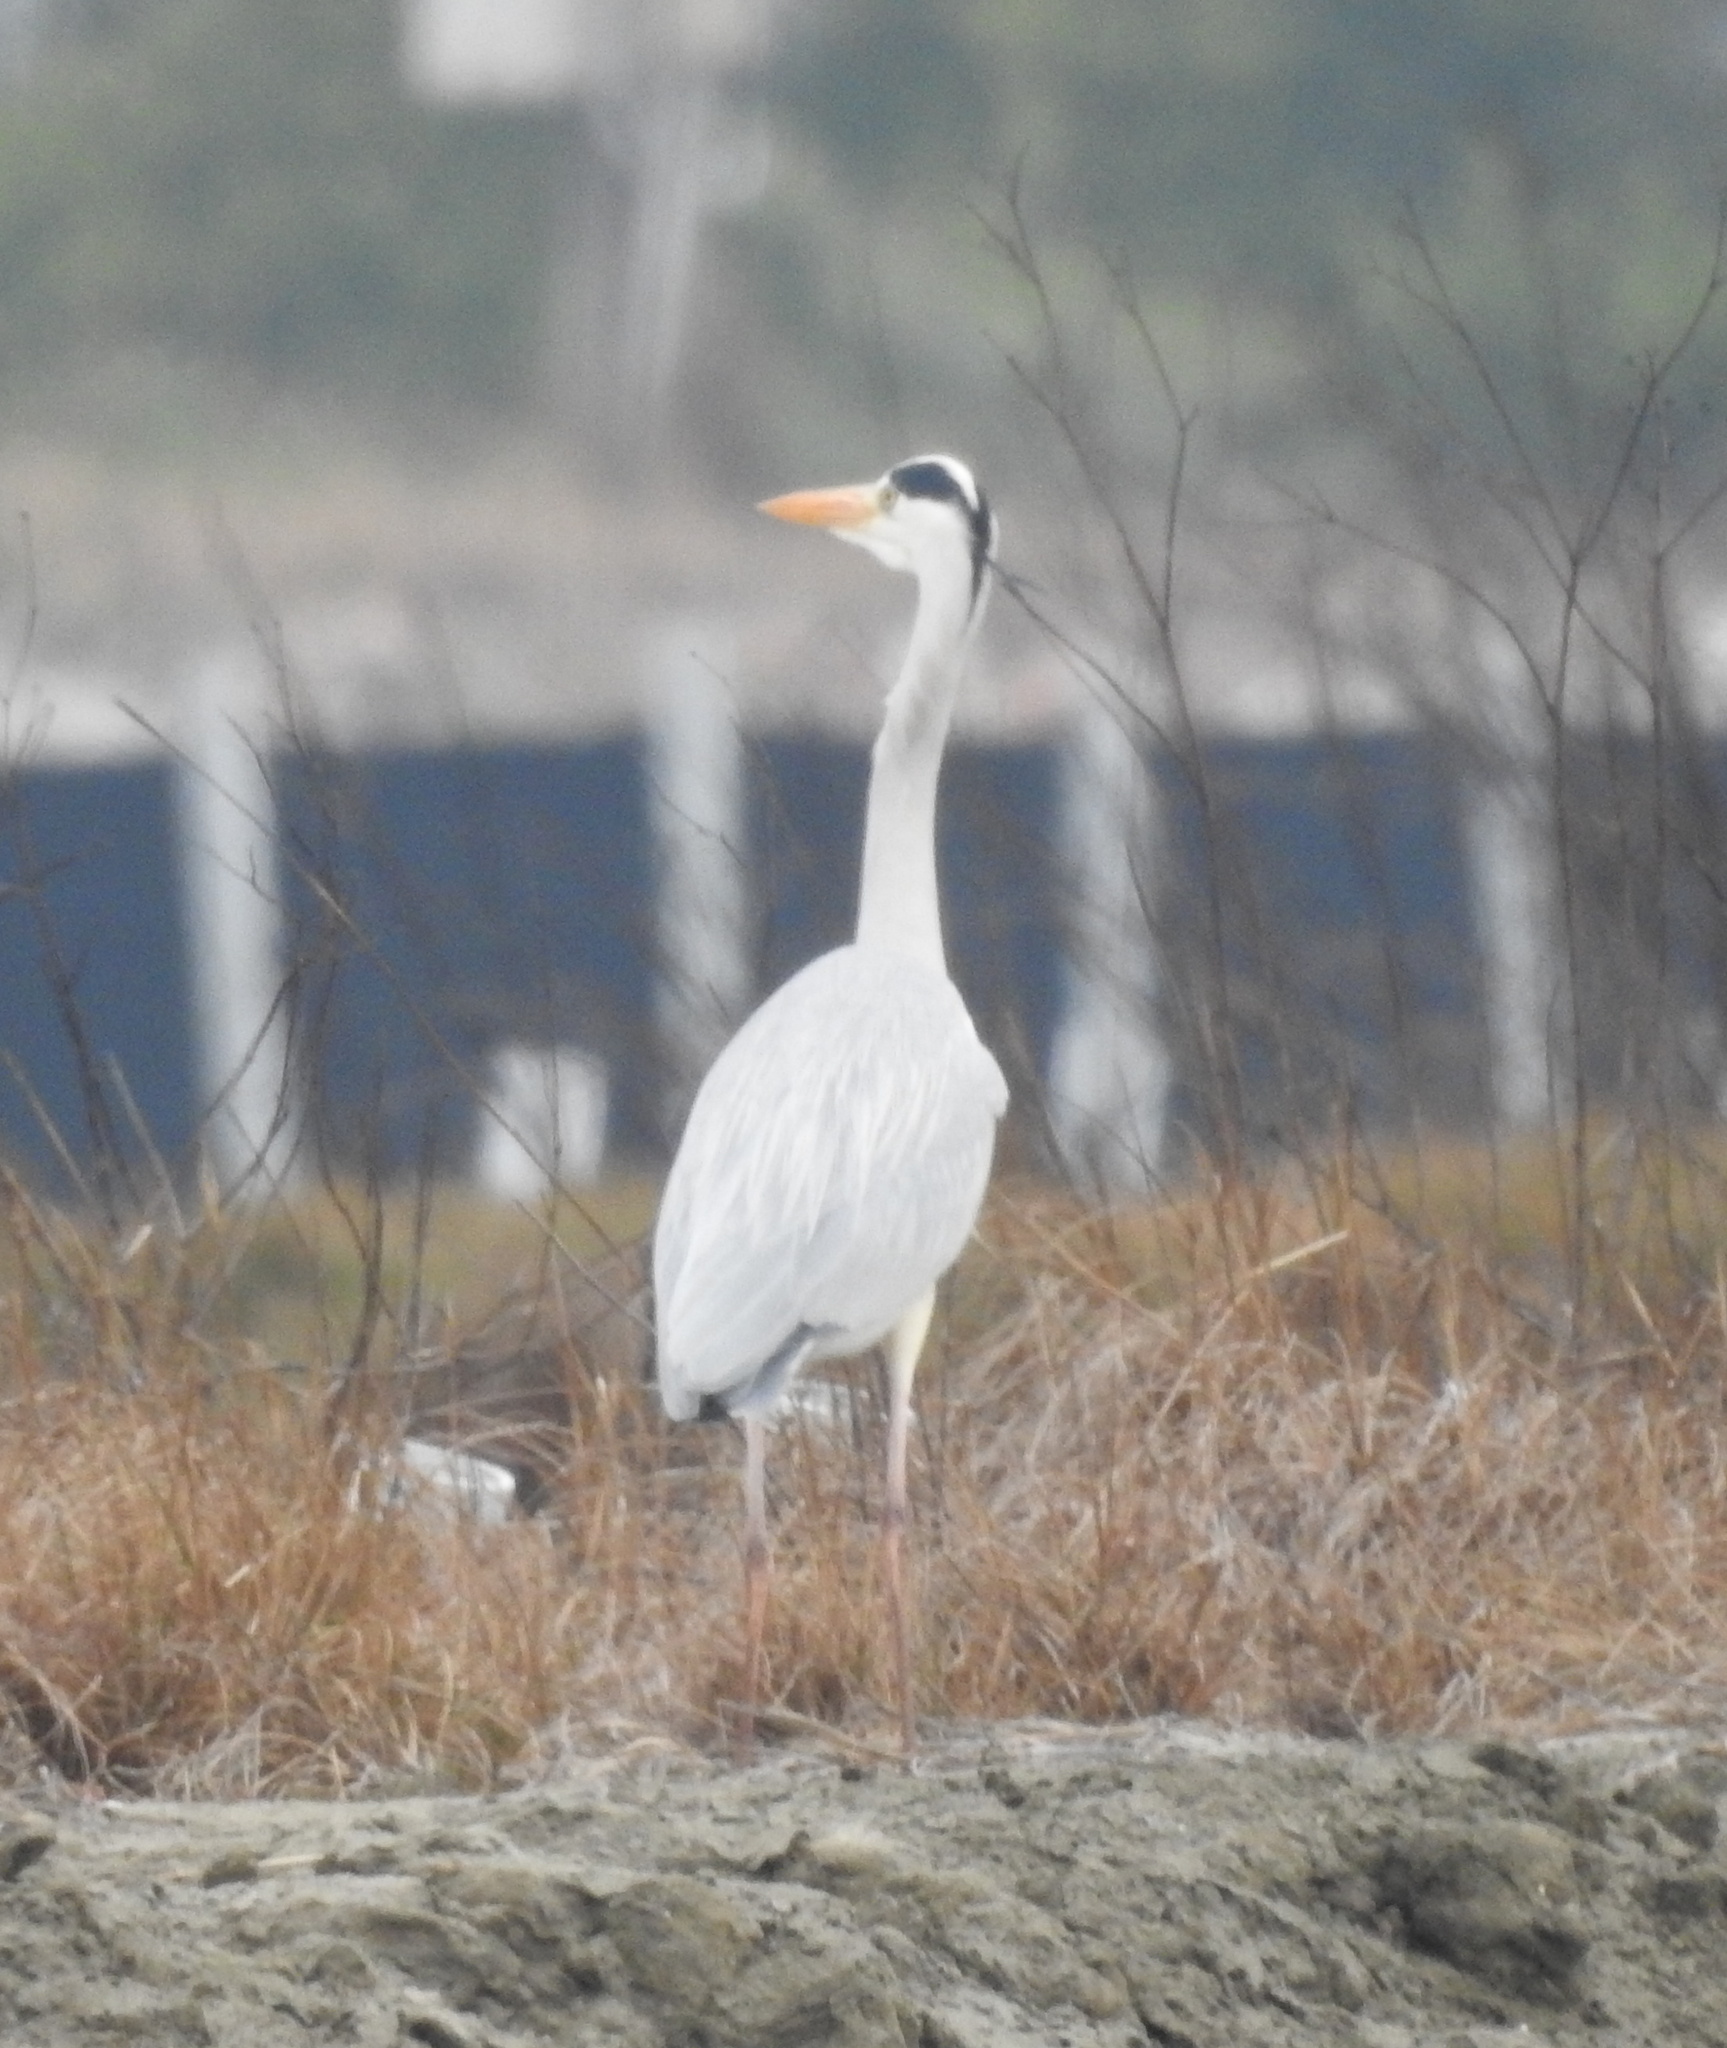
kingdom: Animalia
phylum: Chordata
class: Aves
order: Pelecaniformes
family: Ardeidae
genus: Ardea
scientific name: Ardea cinerea
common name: Grey heron
